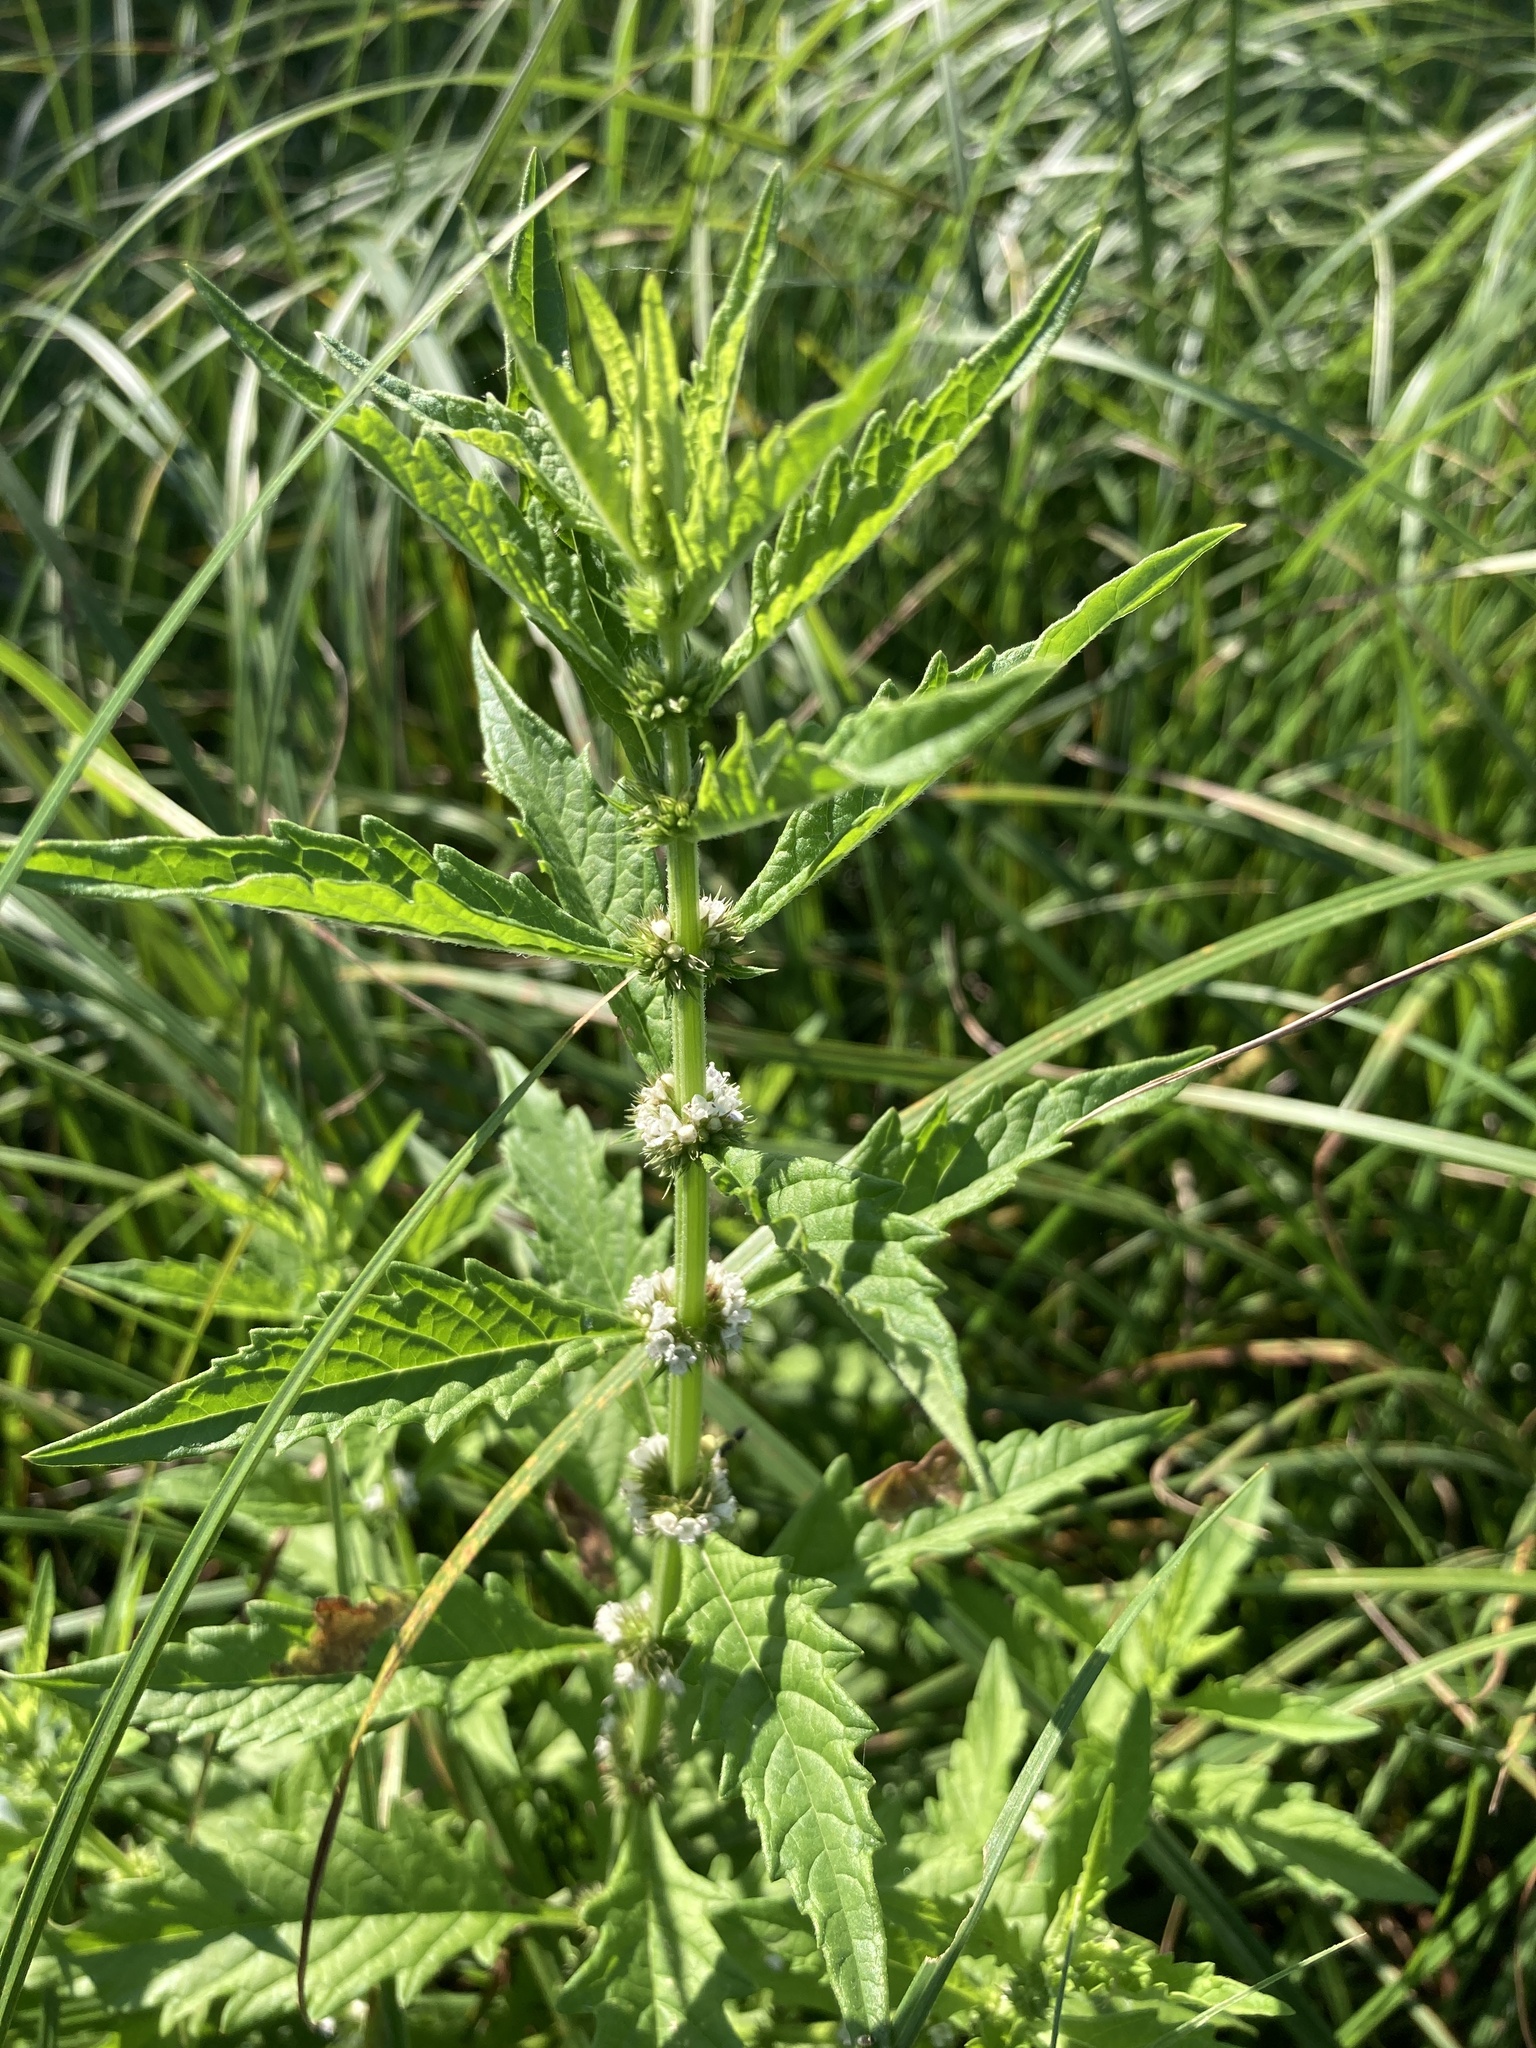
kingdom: Plantae
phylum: Tracheophyta
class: Magnoliopsida
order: Lamiales
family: Lamiaceae
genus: Lycopus
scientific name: Lycopus europaeus
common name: European bugleweed
